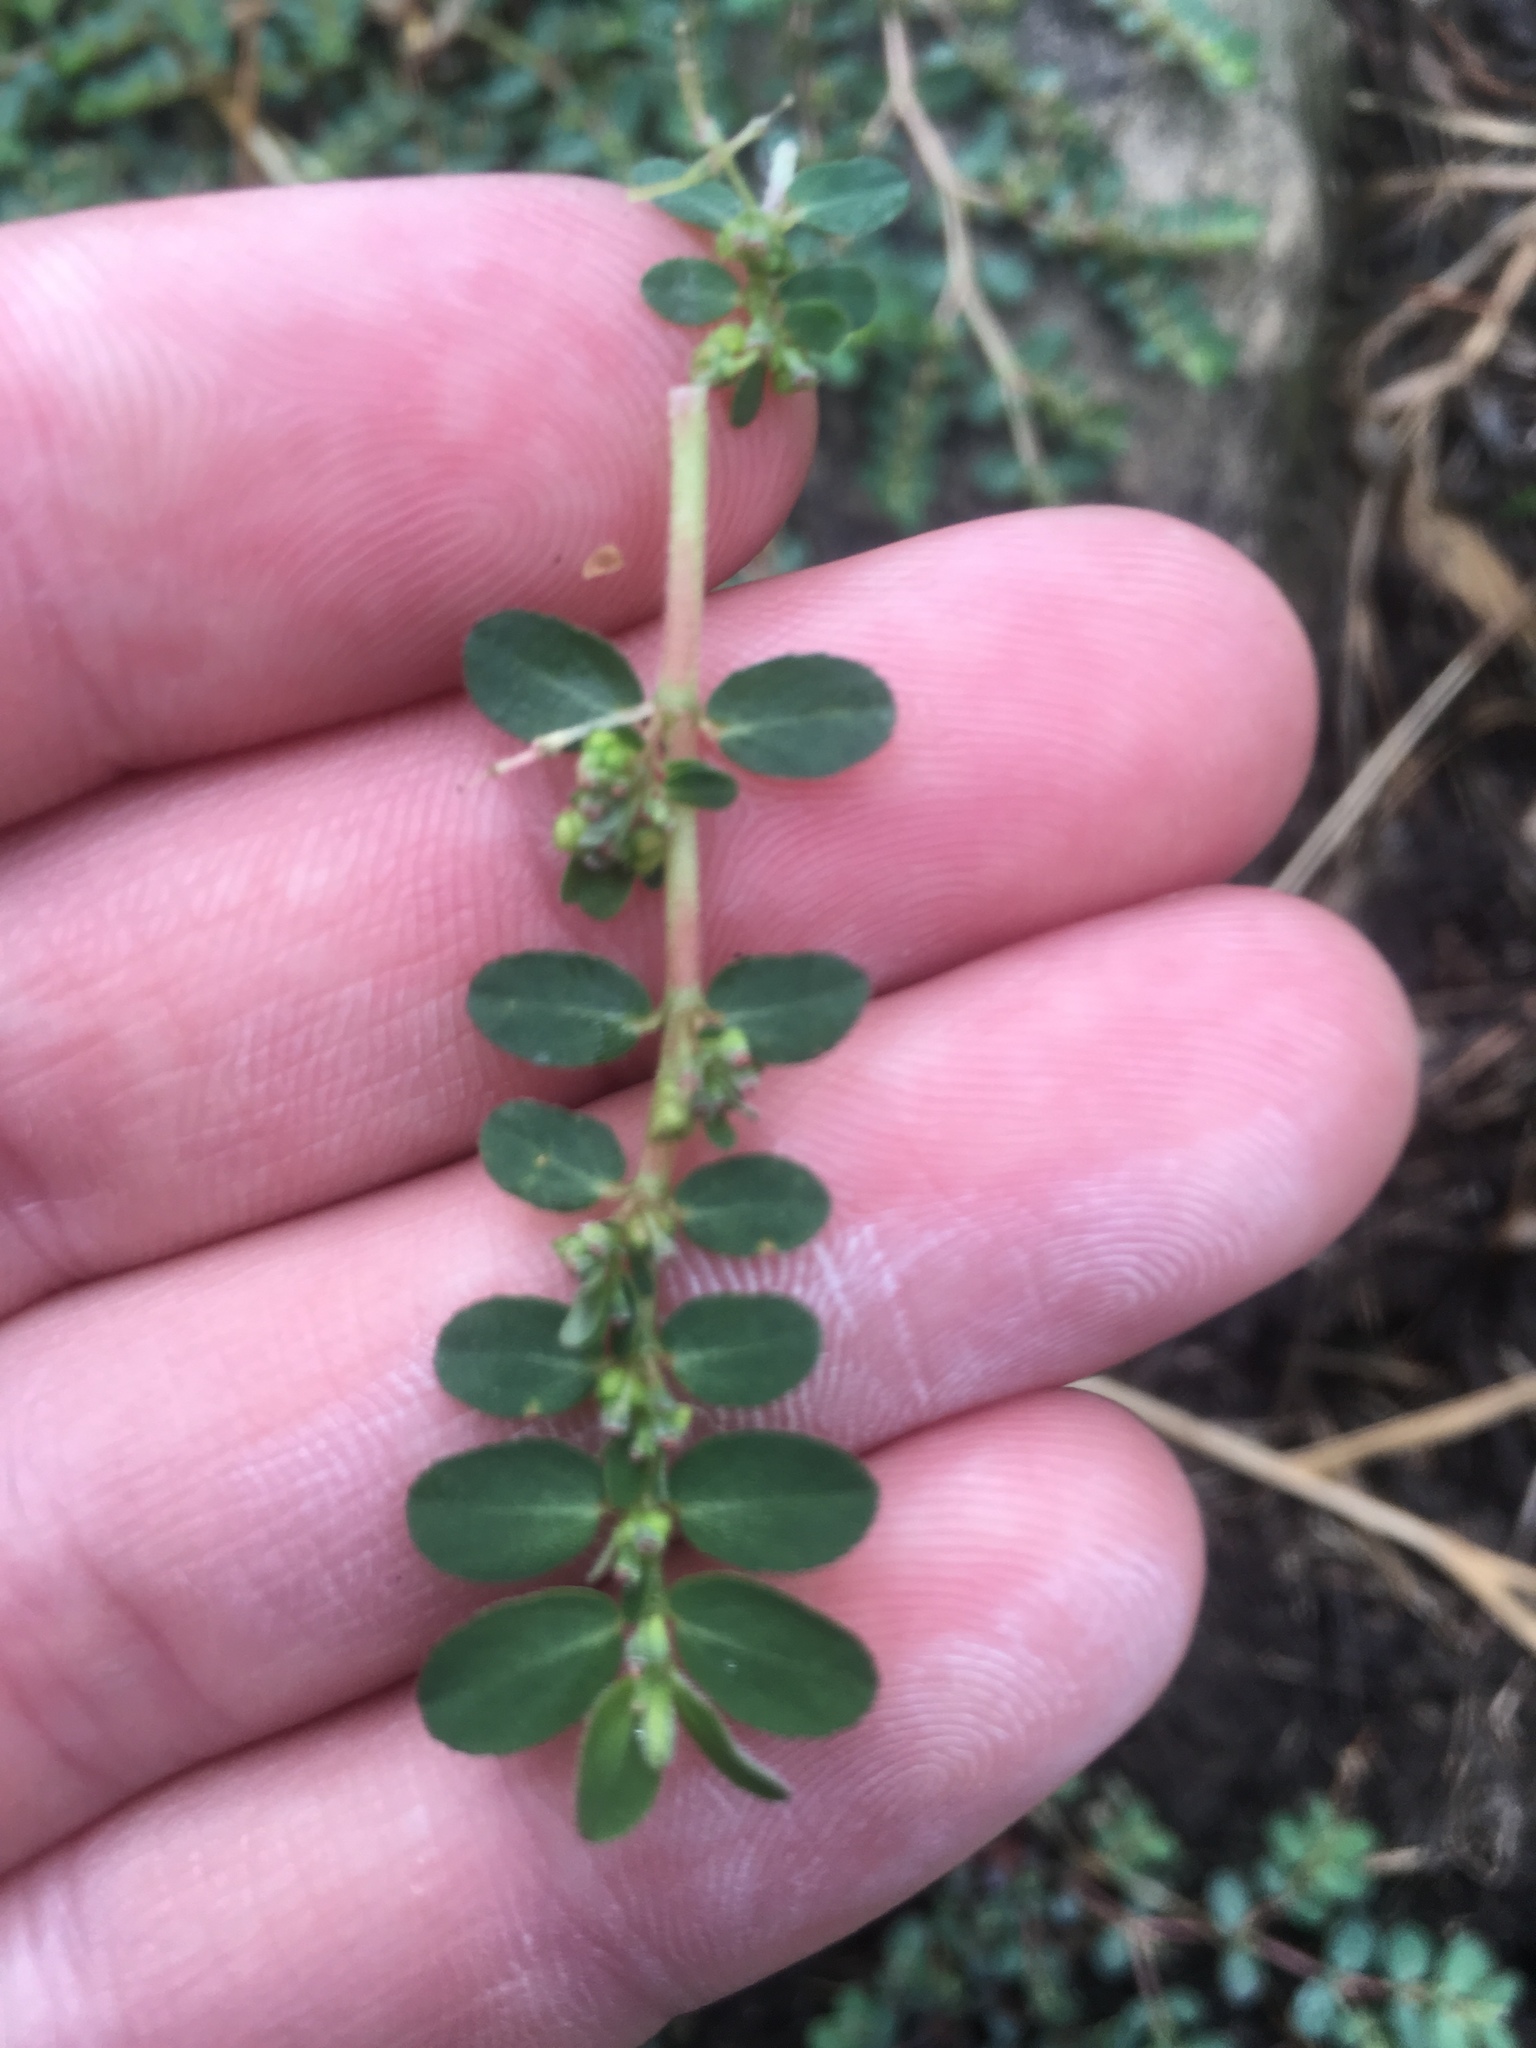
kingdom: Plantae
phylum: Tracheophyta
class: Magnoliopsida
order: Malpighiales
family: Euphorbiaceae
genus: Euphorbia
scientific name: Euphorbia prostrata
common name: Prostrate sandmat
